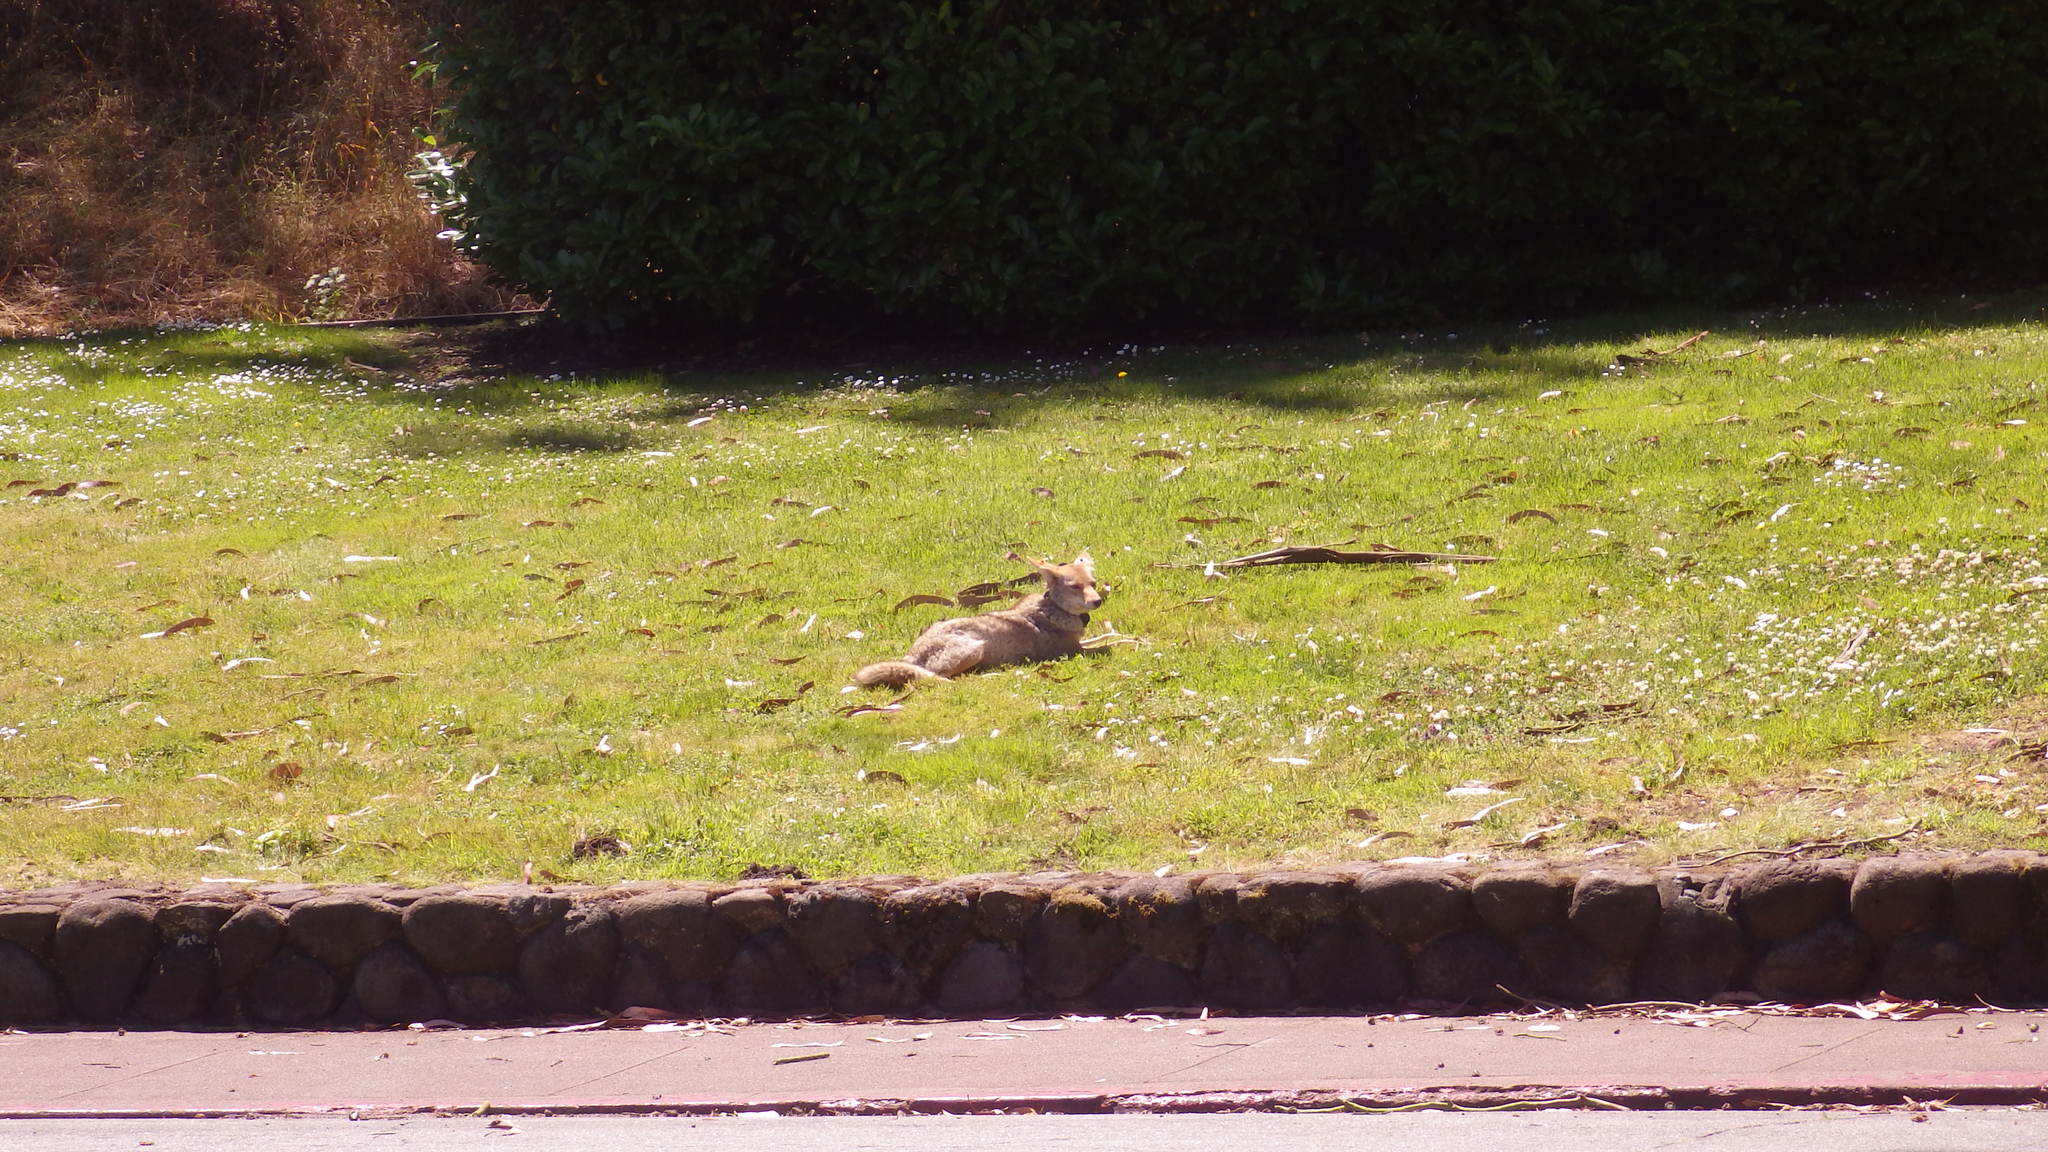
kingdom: Animalia
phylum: Chordata
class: Mammalia
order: Carnivora
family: Canidae
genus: Canis
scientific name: Canis latrans
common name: Coyote
